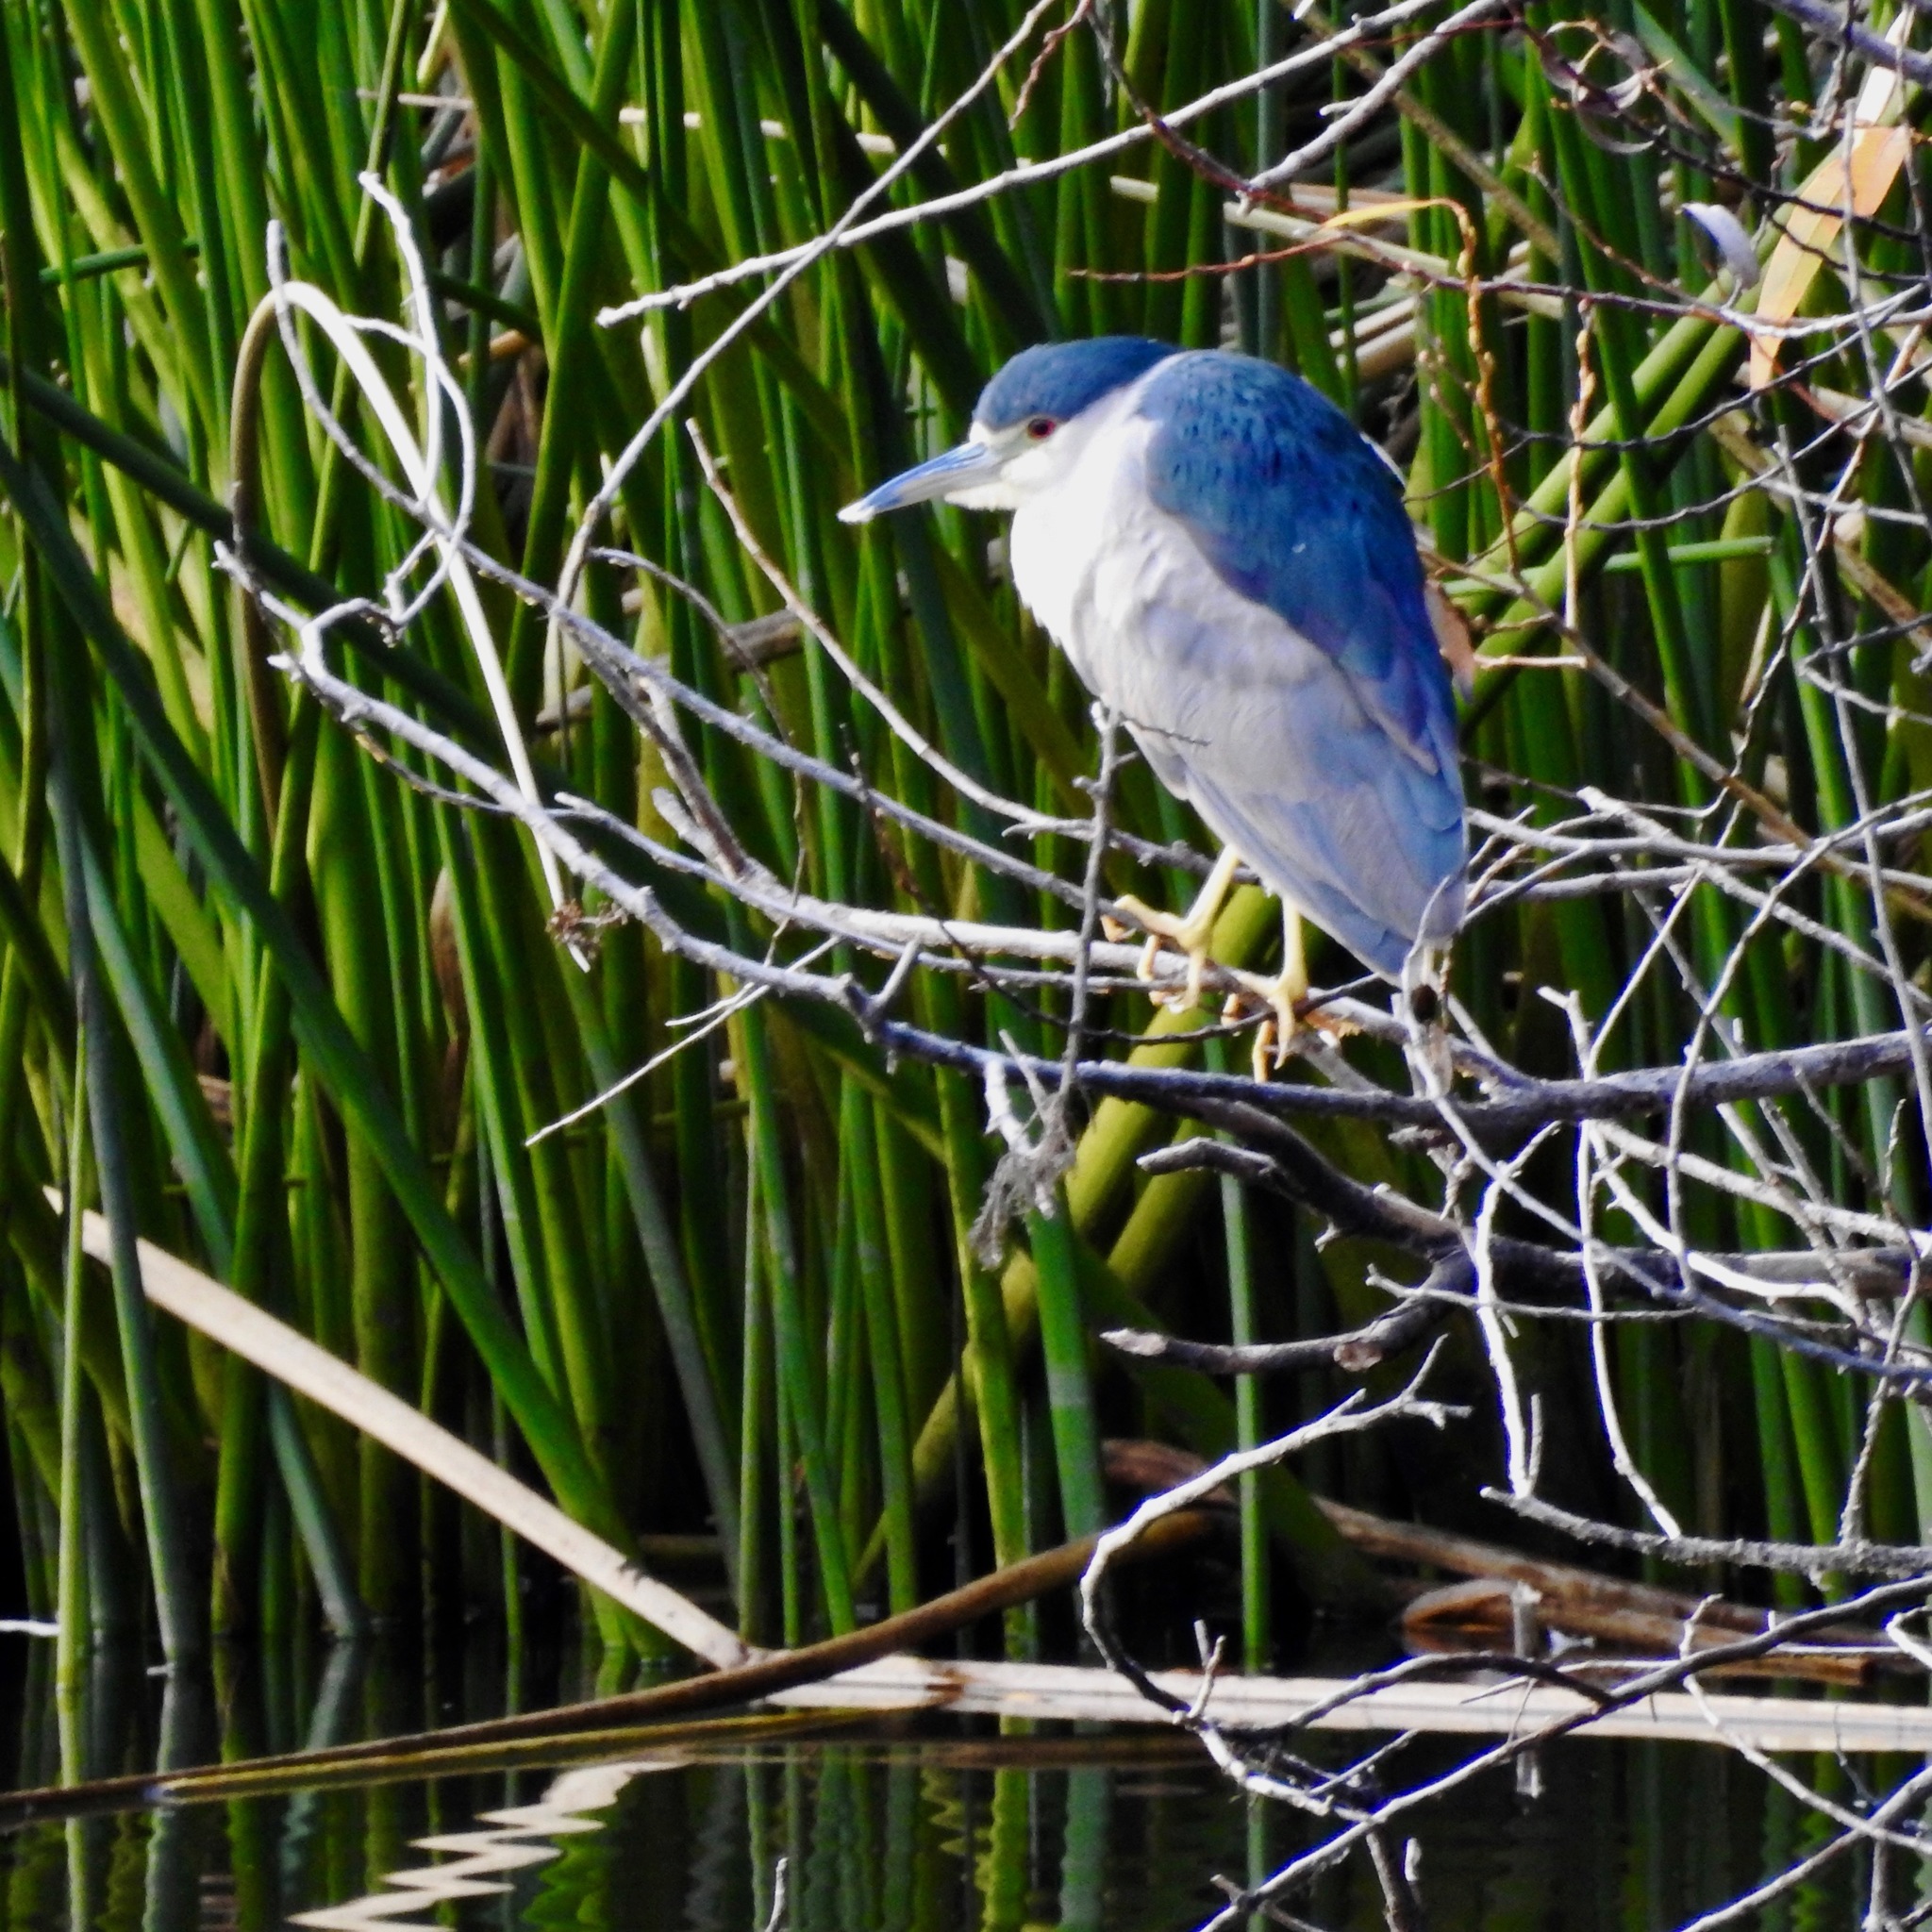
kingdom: Animalia
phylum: Chordata
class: Aves
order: Pelecaniformes
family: Ardeidae
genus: Nycticorax
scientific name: Nycticorax nycticorax
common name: Black-crowned night heron
